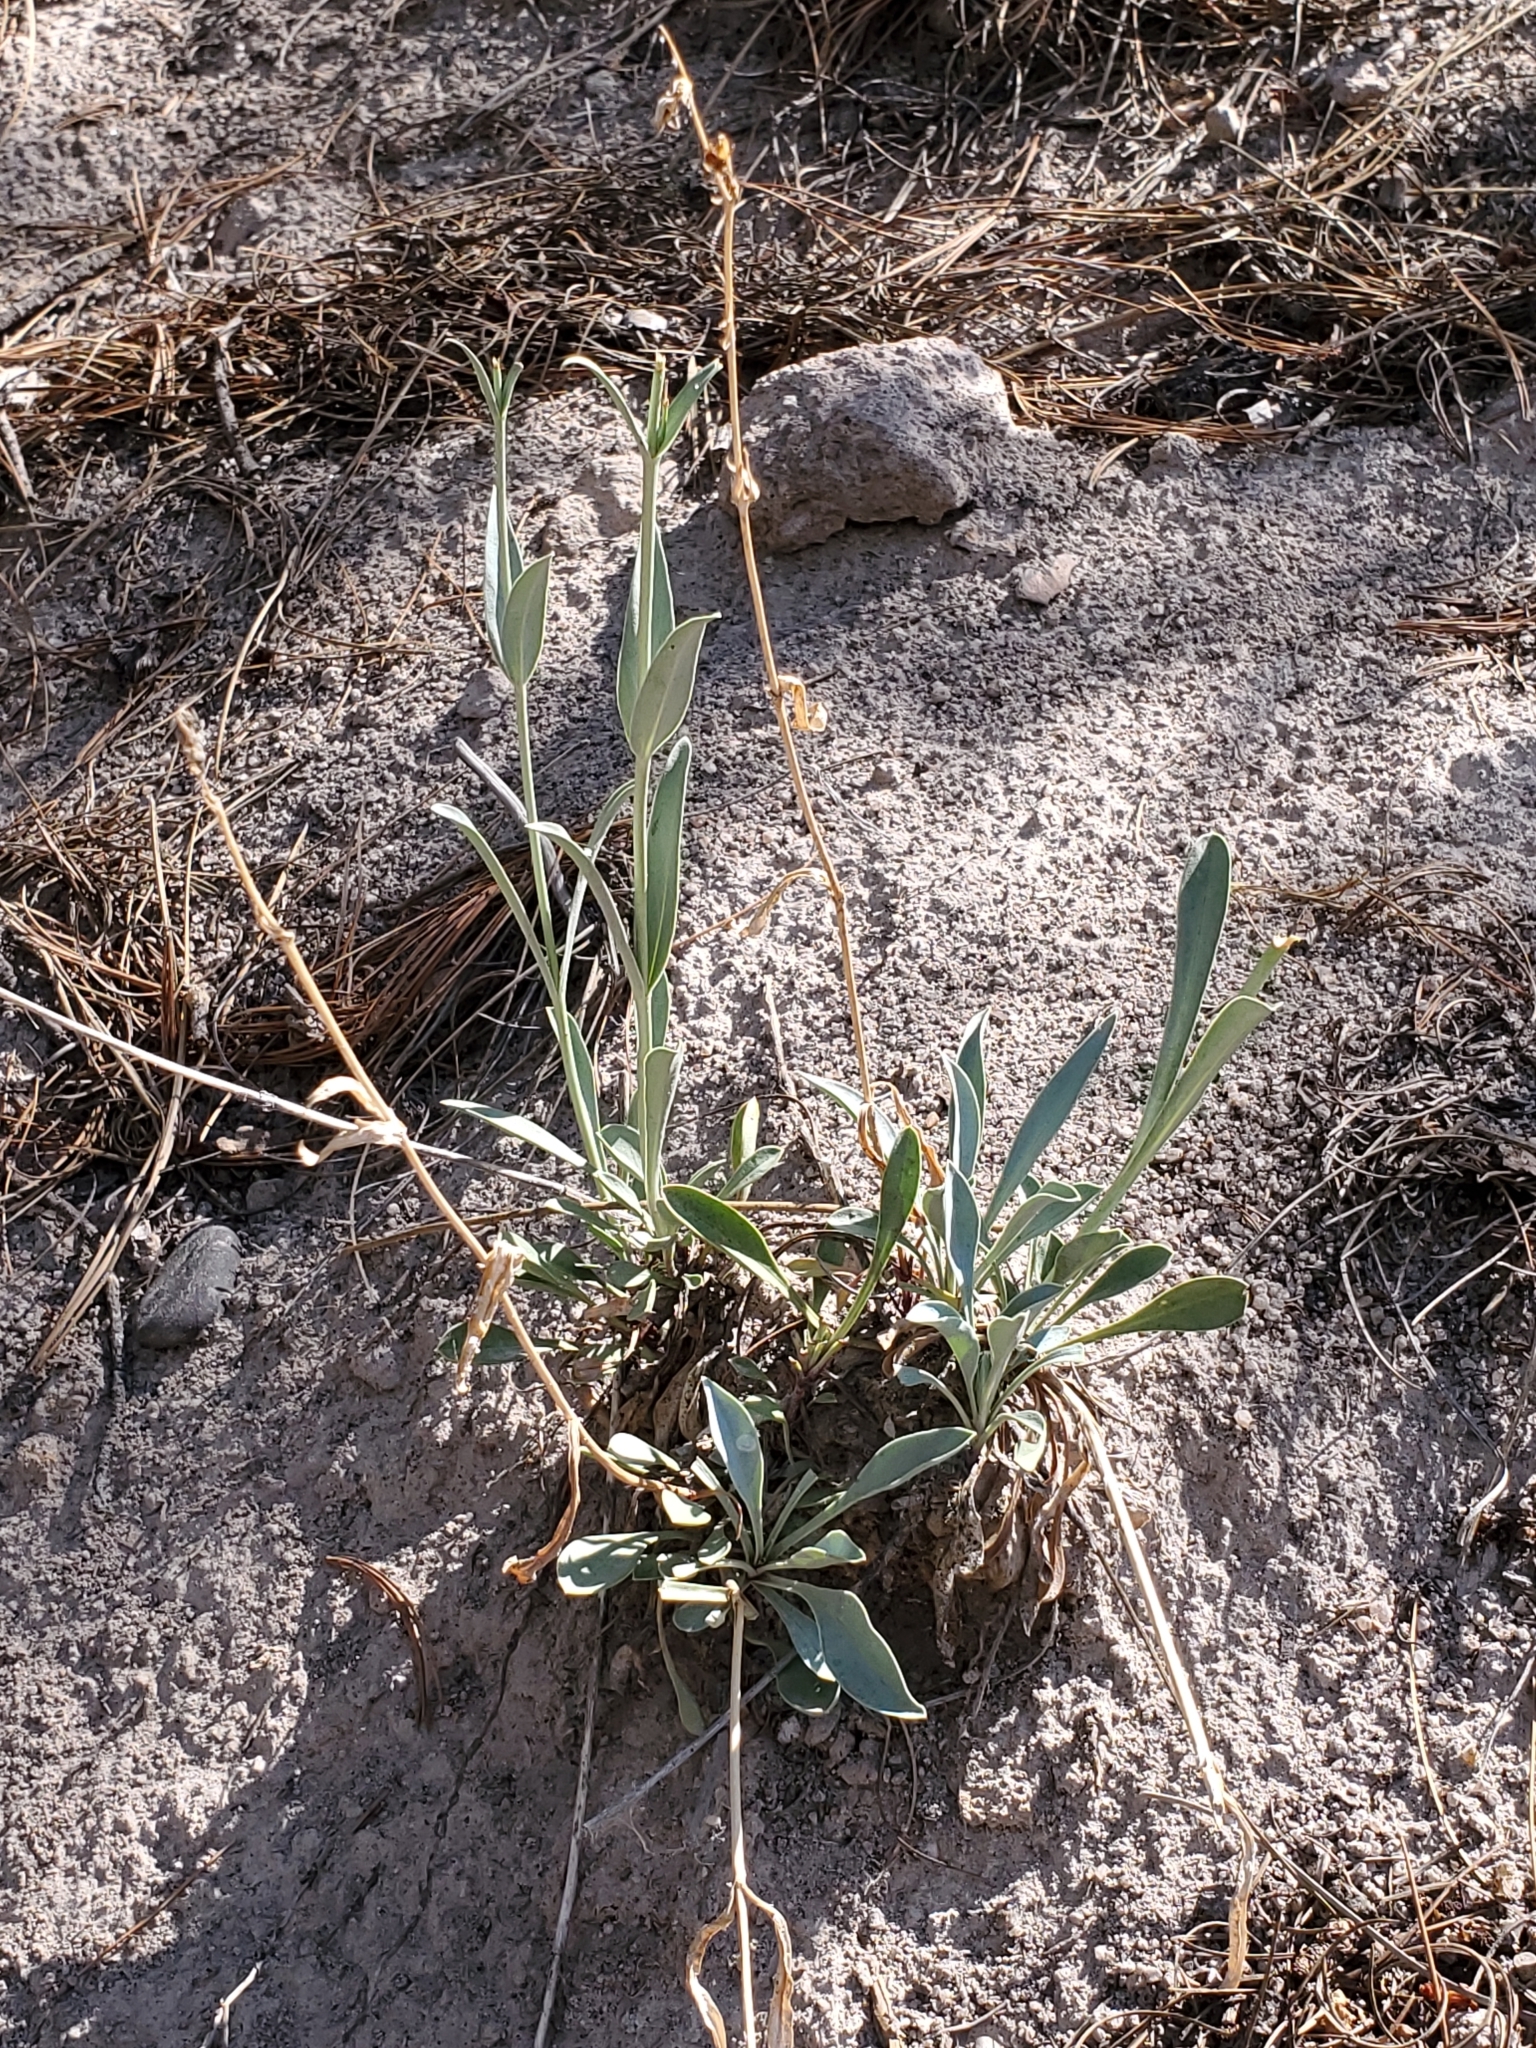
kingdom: Plantae
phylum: Tracheophyta
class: Magnoliopsida
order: Lamiales
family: Plantaginaceae
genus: Penstemon
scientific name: Penstemon secundiflorus
